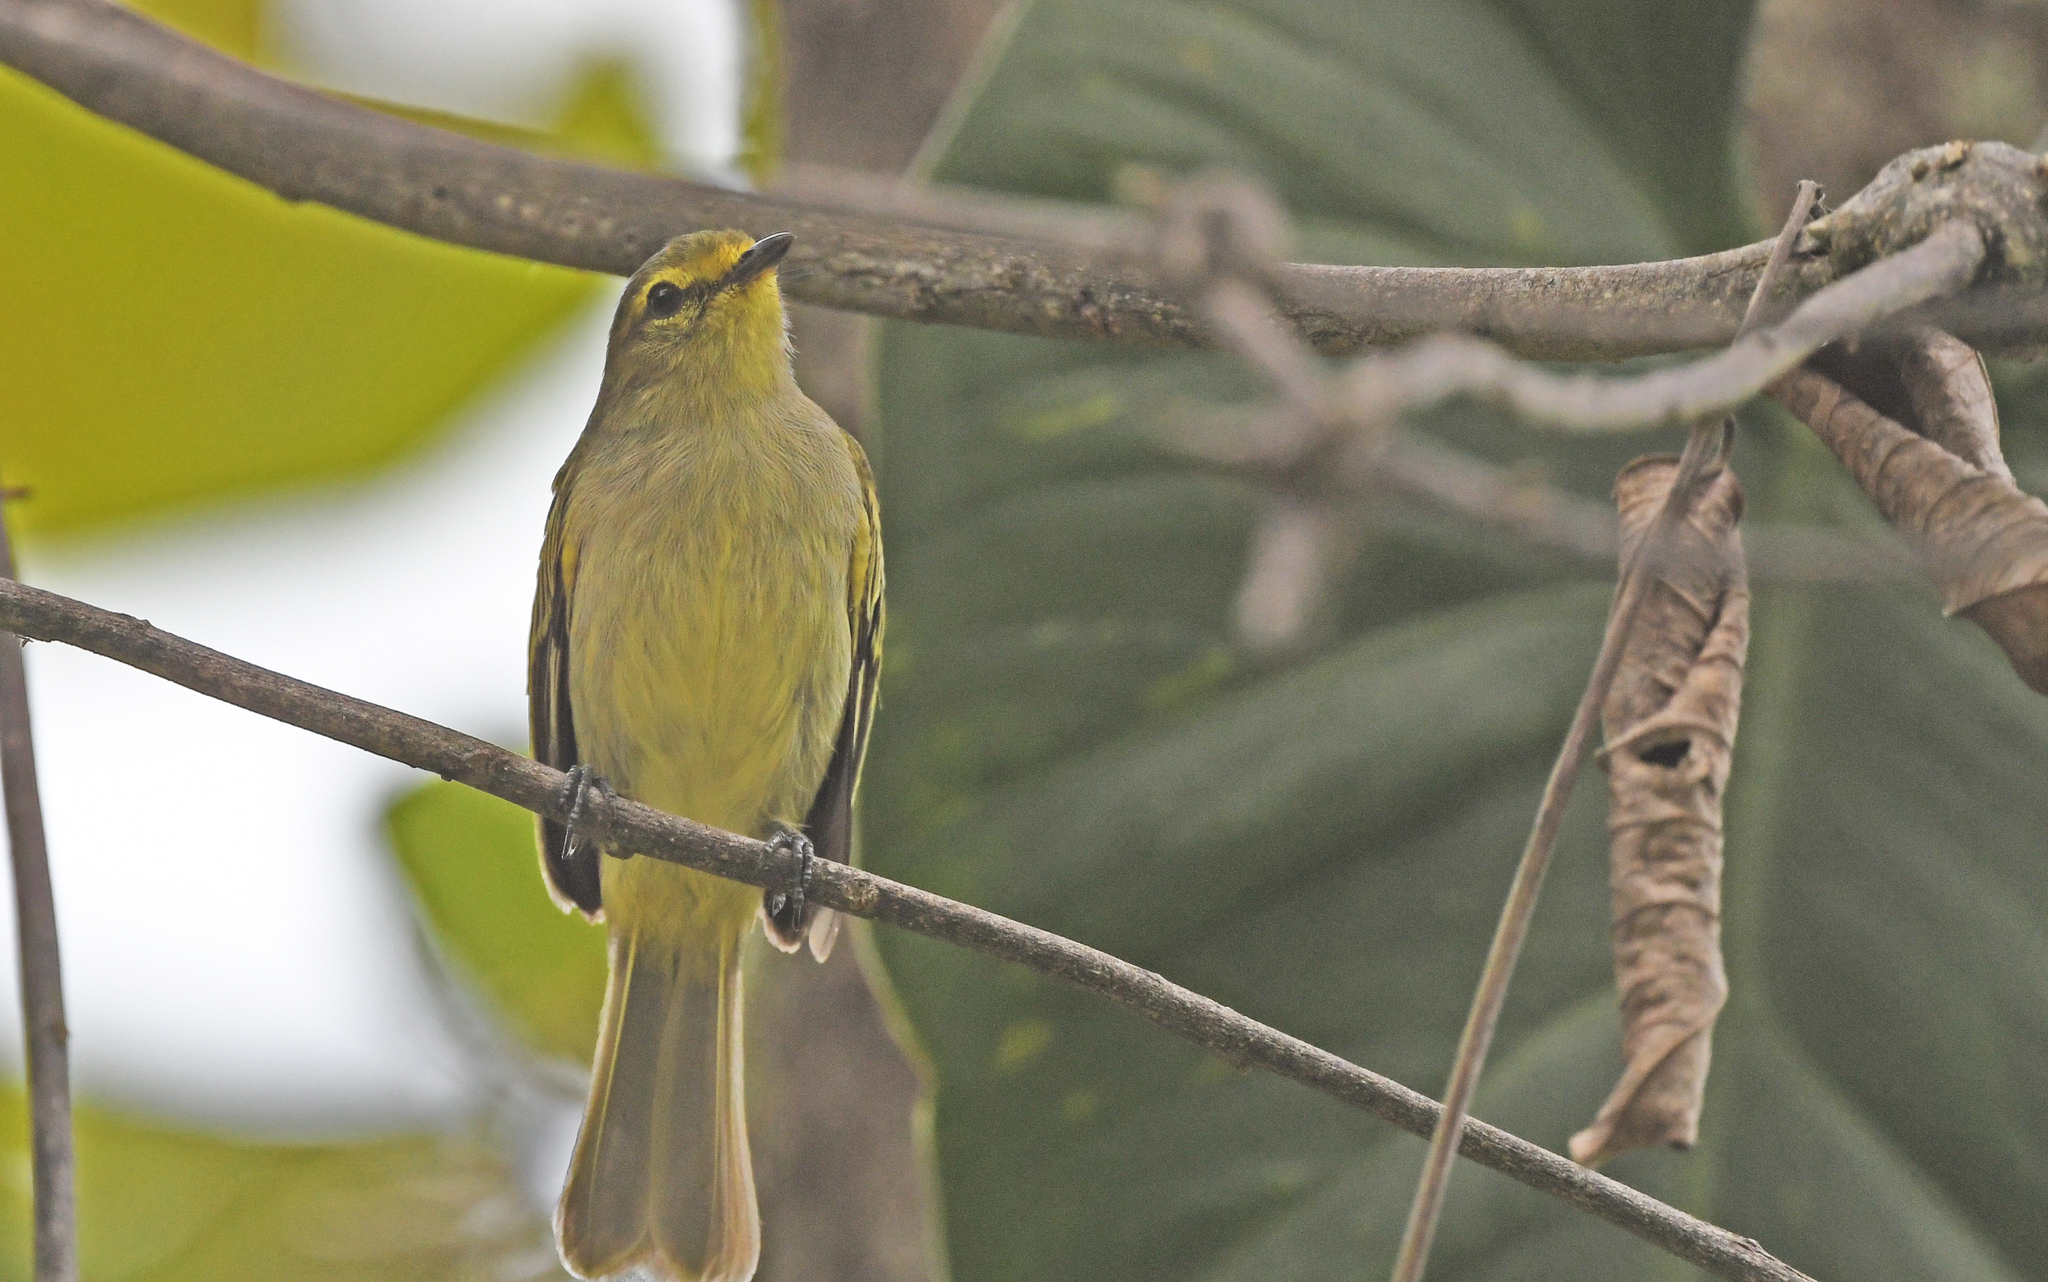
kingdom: Animalia
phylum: Chordata
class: Aves
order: Passeriformes
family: Tyrannidae
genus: Zimmerius
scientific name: Zimmerius chrysops
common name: Golden-faced tyrannulet
